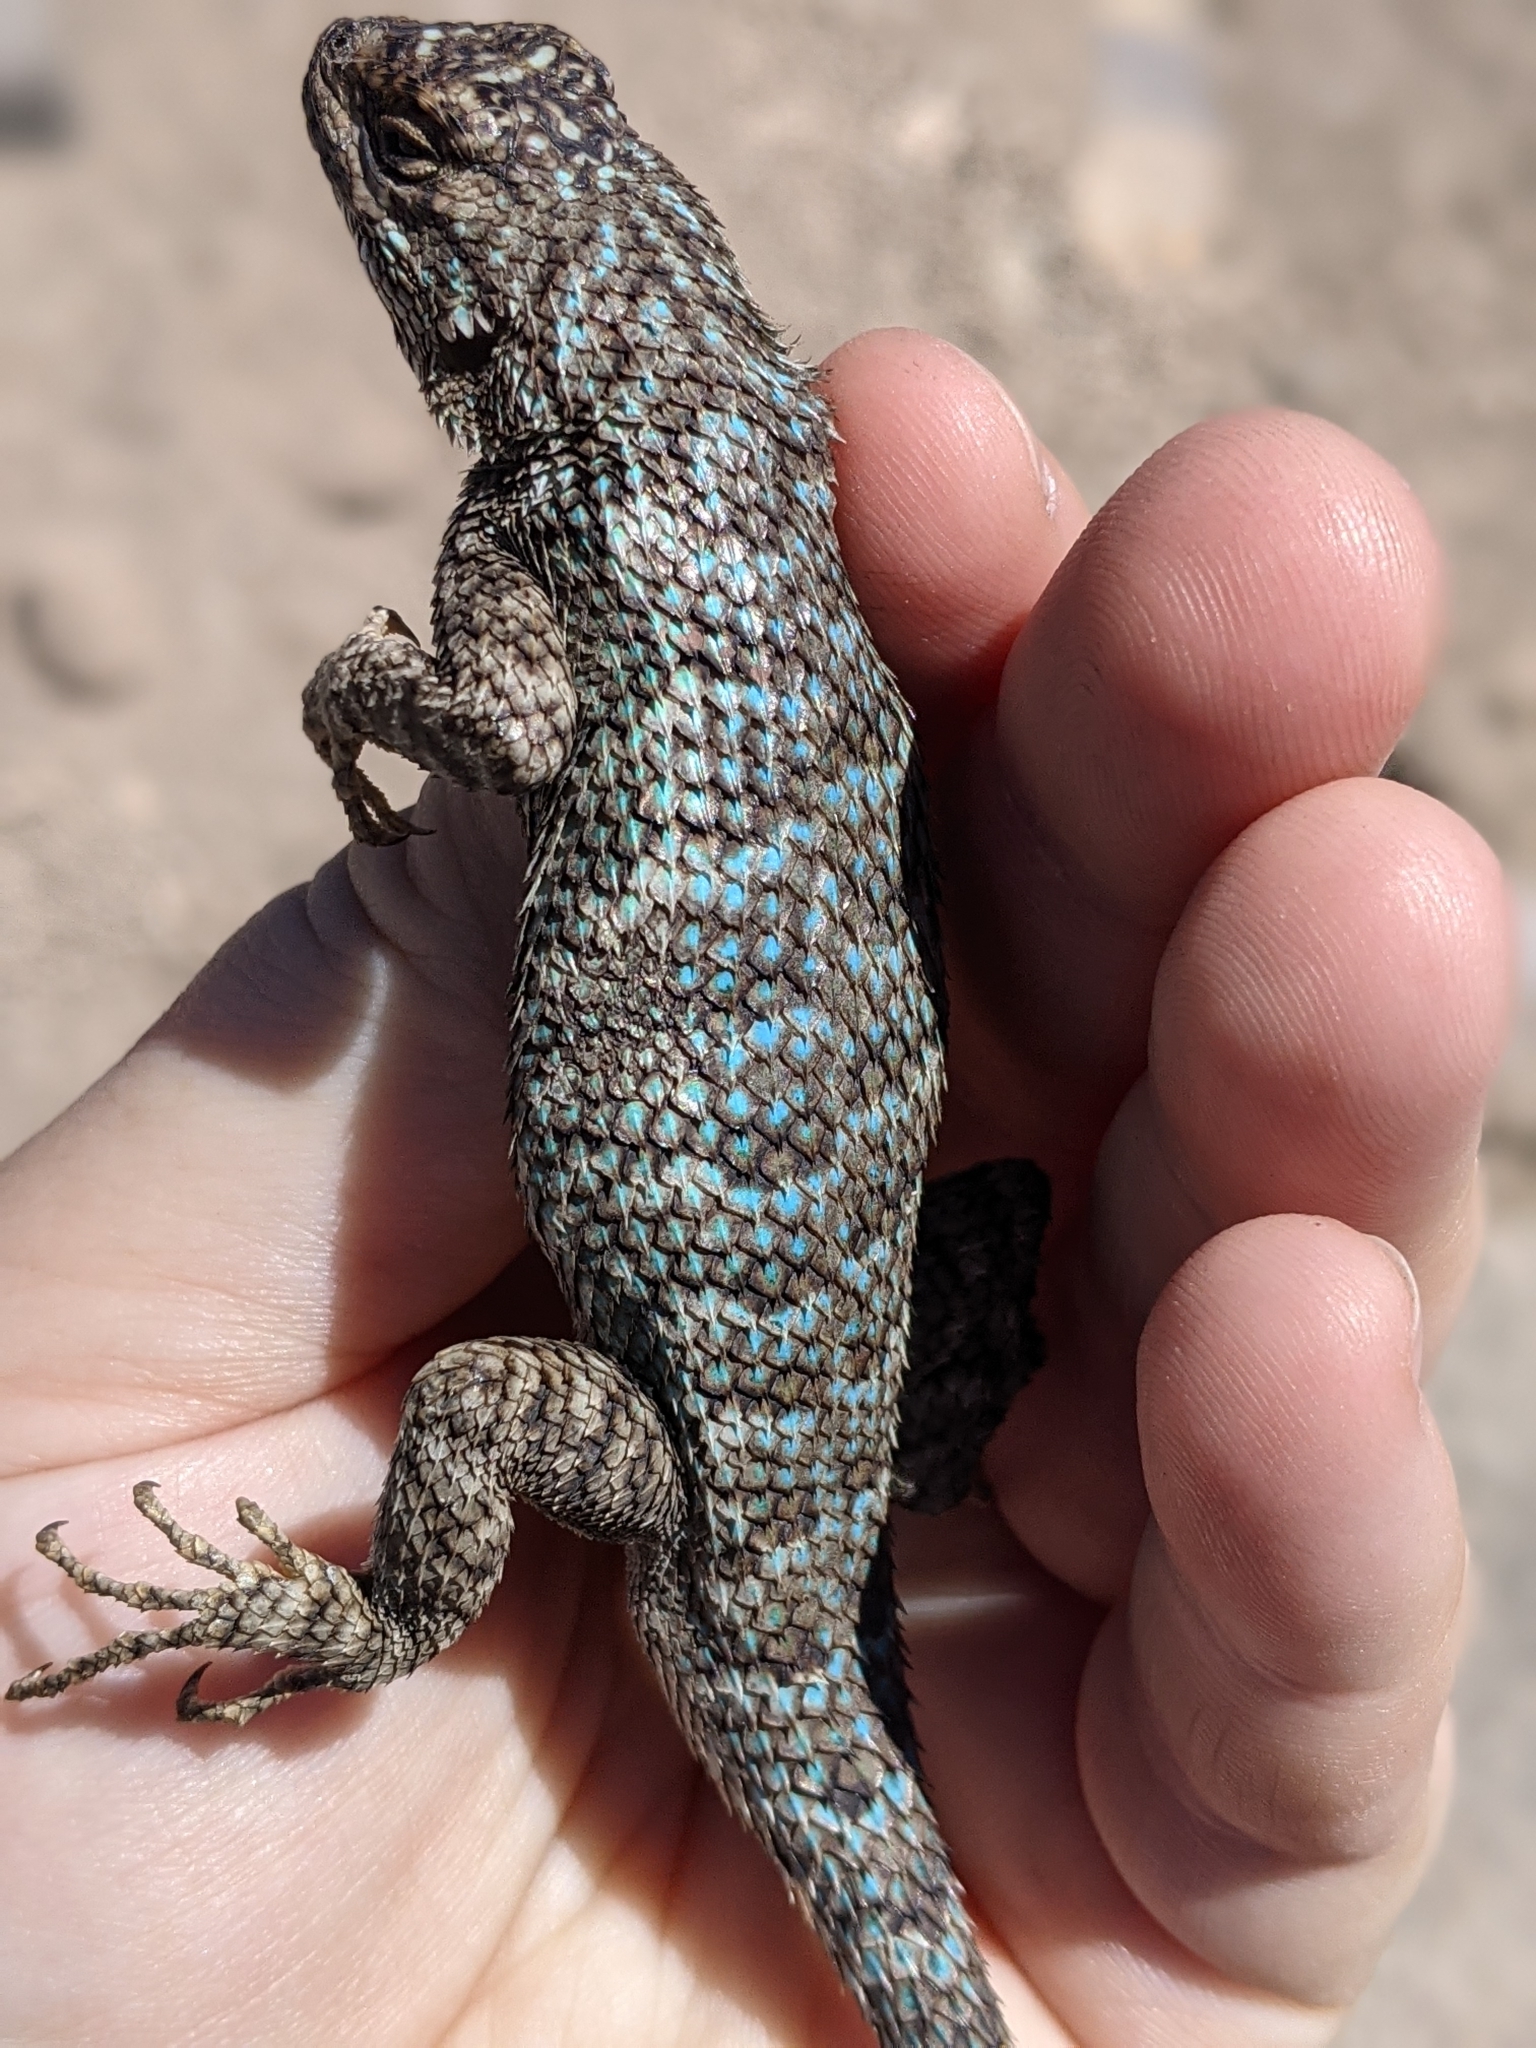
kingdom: Animalia
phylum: Chordata
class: Squamata
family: Phrynosomatidae
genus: Sceloporus
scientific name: Sceloporus occidentalis
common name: Western fence lizard
